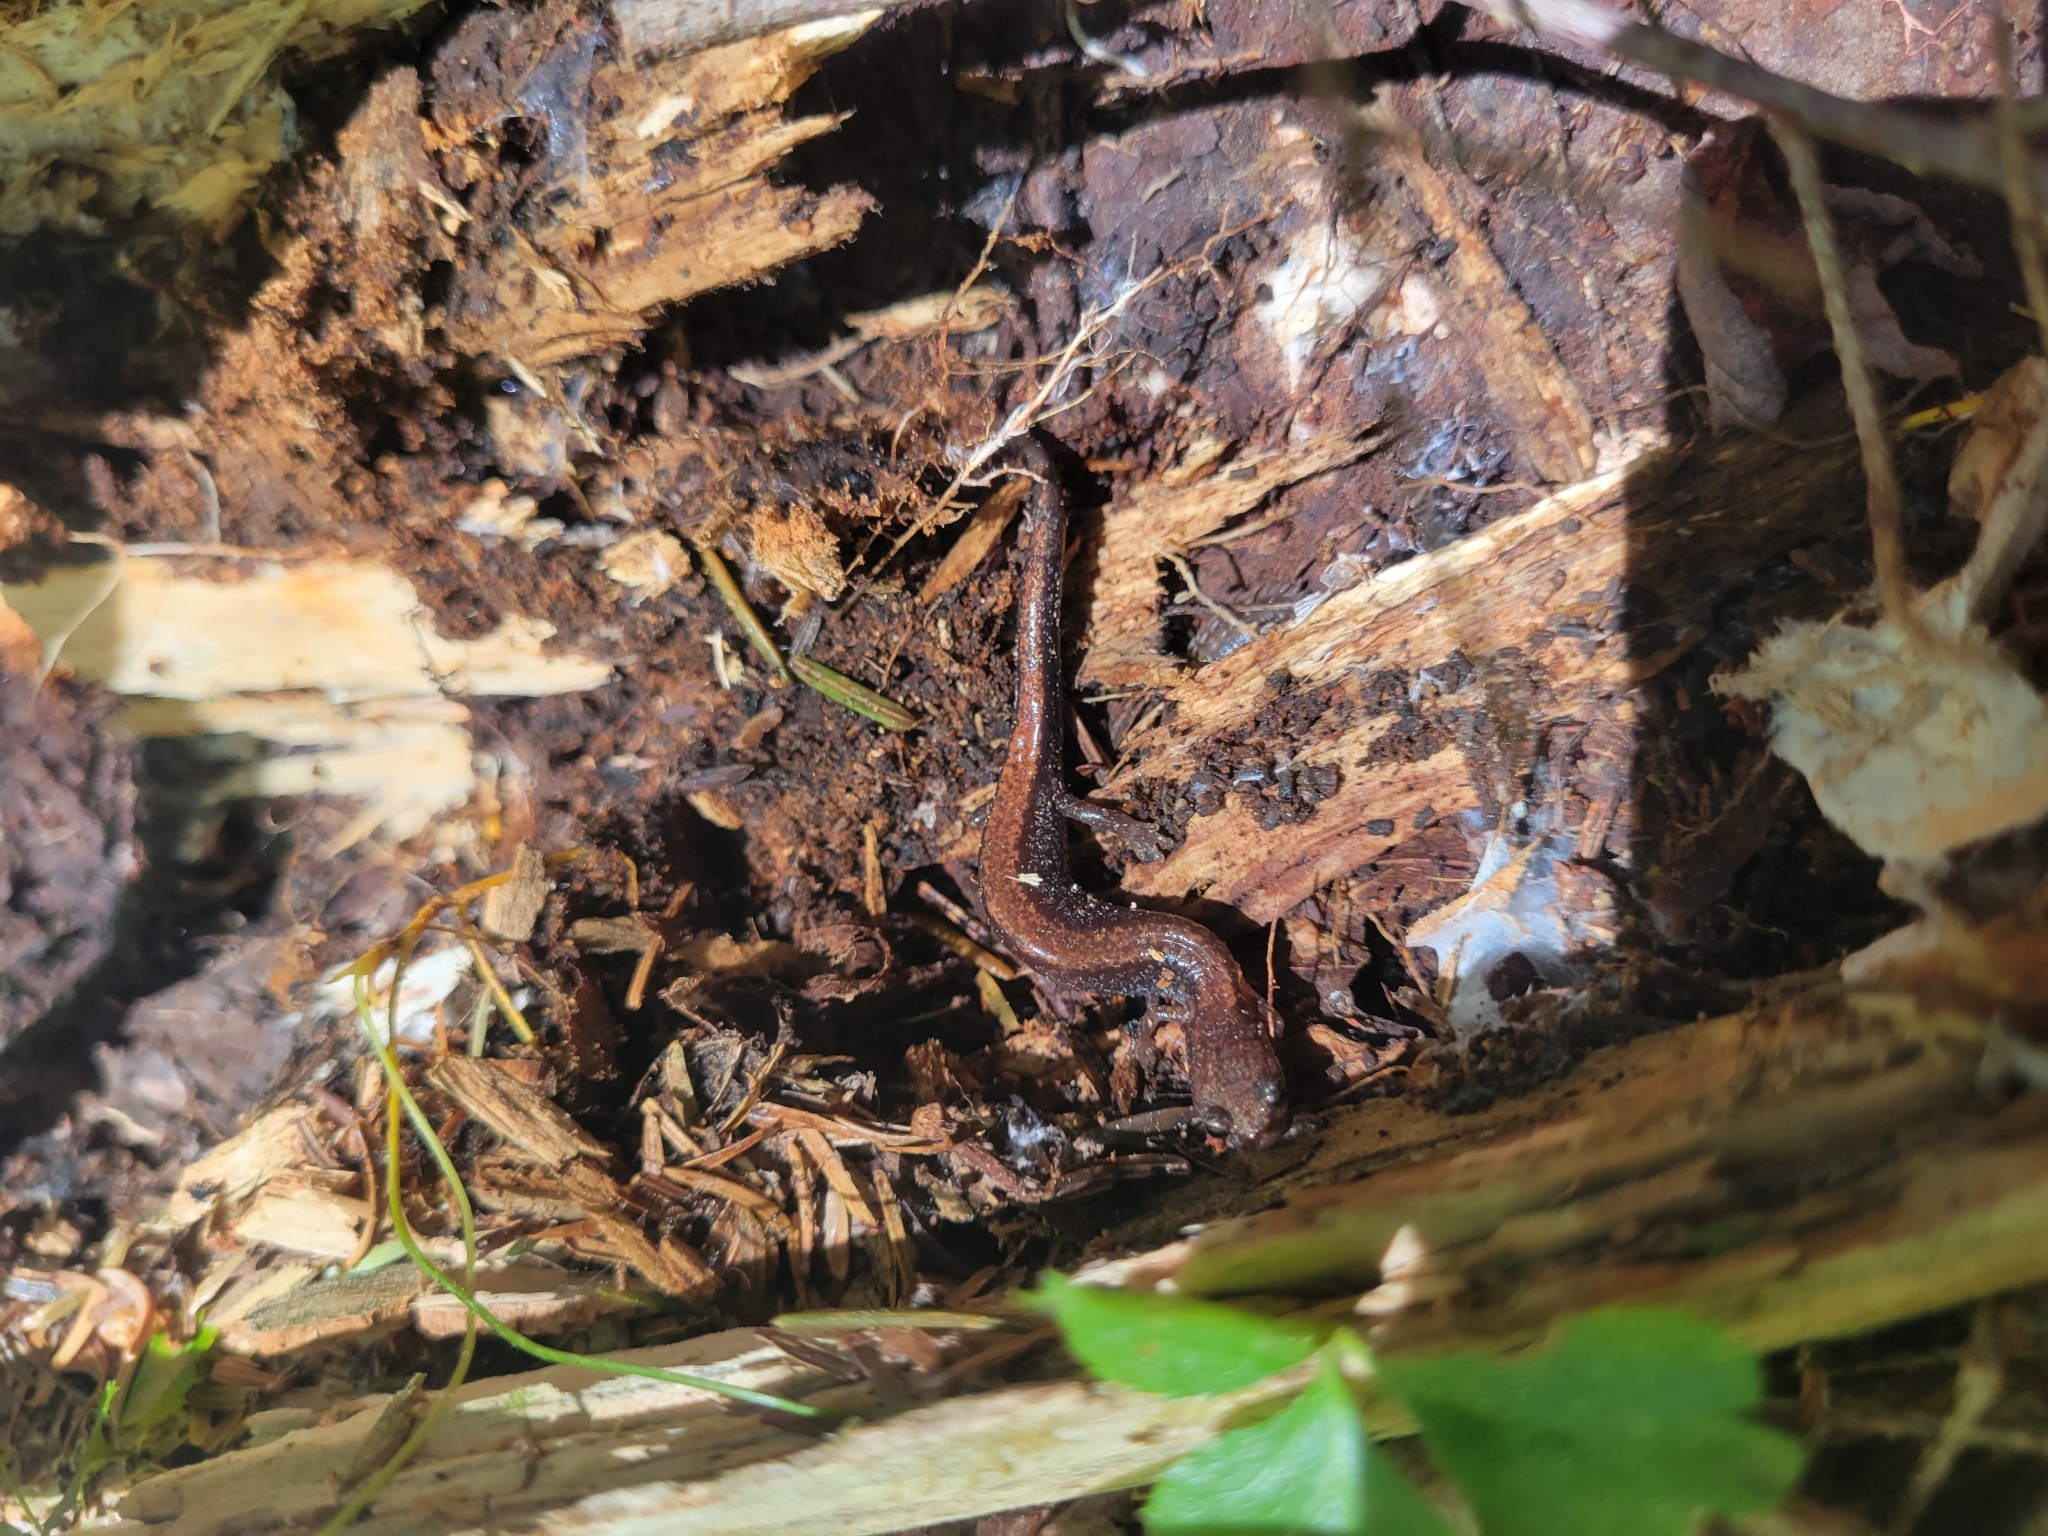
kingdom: Animalia
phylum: Chordata
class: Amphibia
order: Caudata
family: Plethodontidae
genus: Plethodon
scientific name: Plethodon cinereus
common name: Redback salamander
